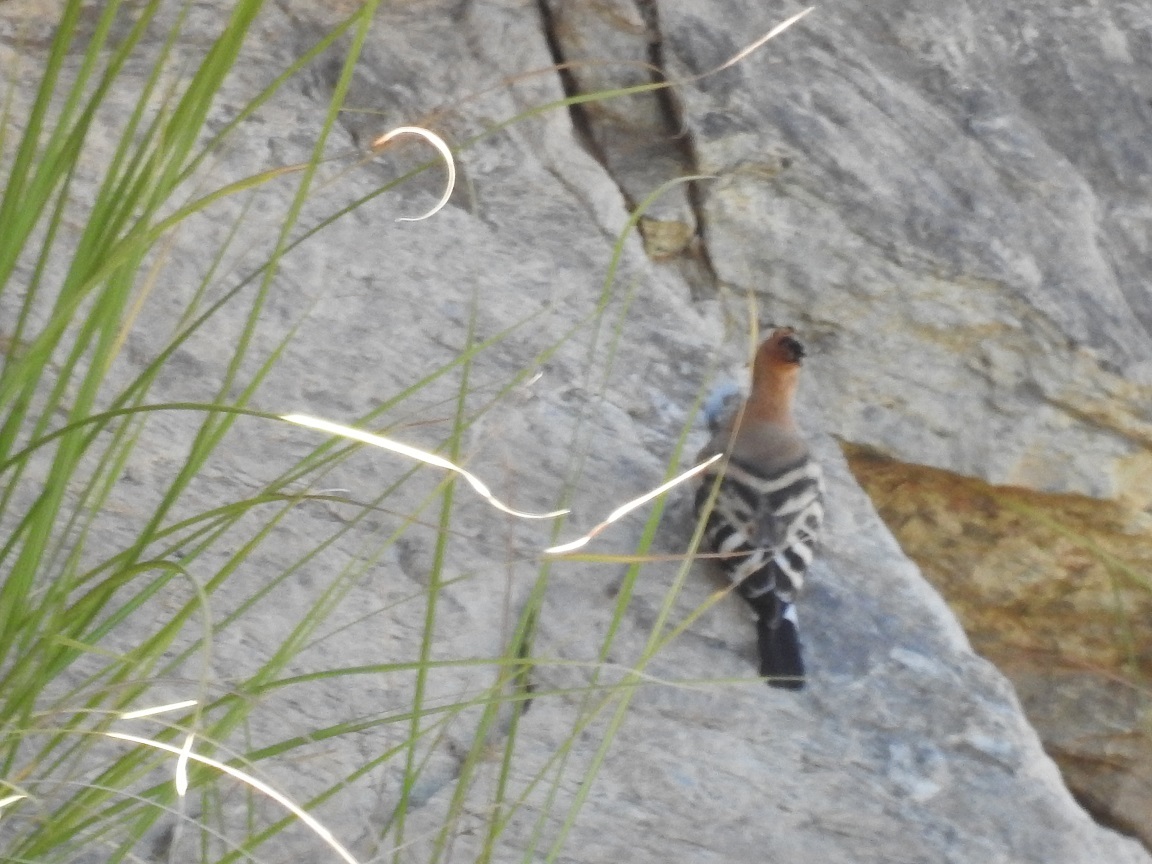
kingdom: Animalia
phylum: Chordata
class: Aves
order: Bucerotiformes
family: Upupidae
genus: Upupa
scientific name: Upupa epops
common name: Eurasian hoopoe
